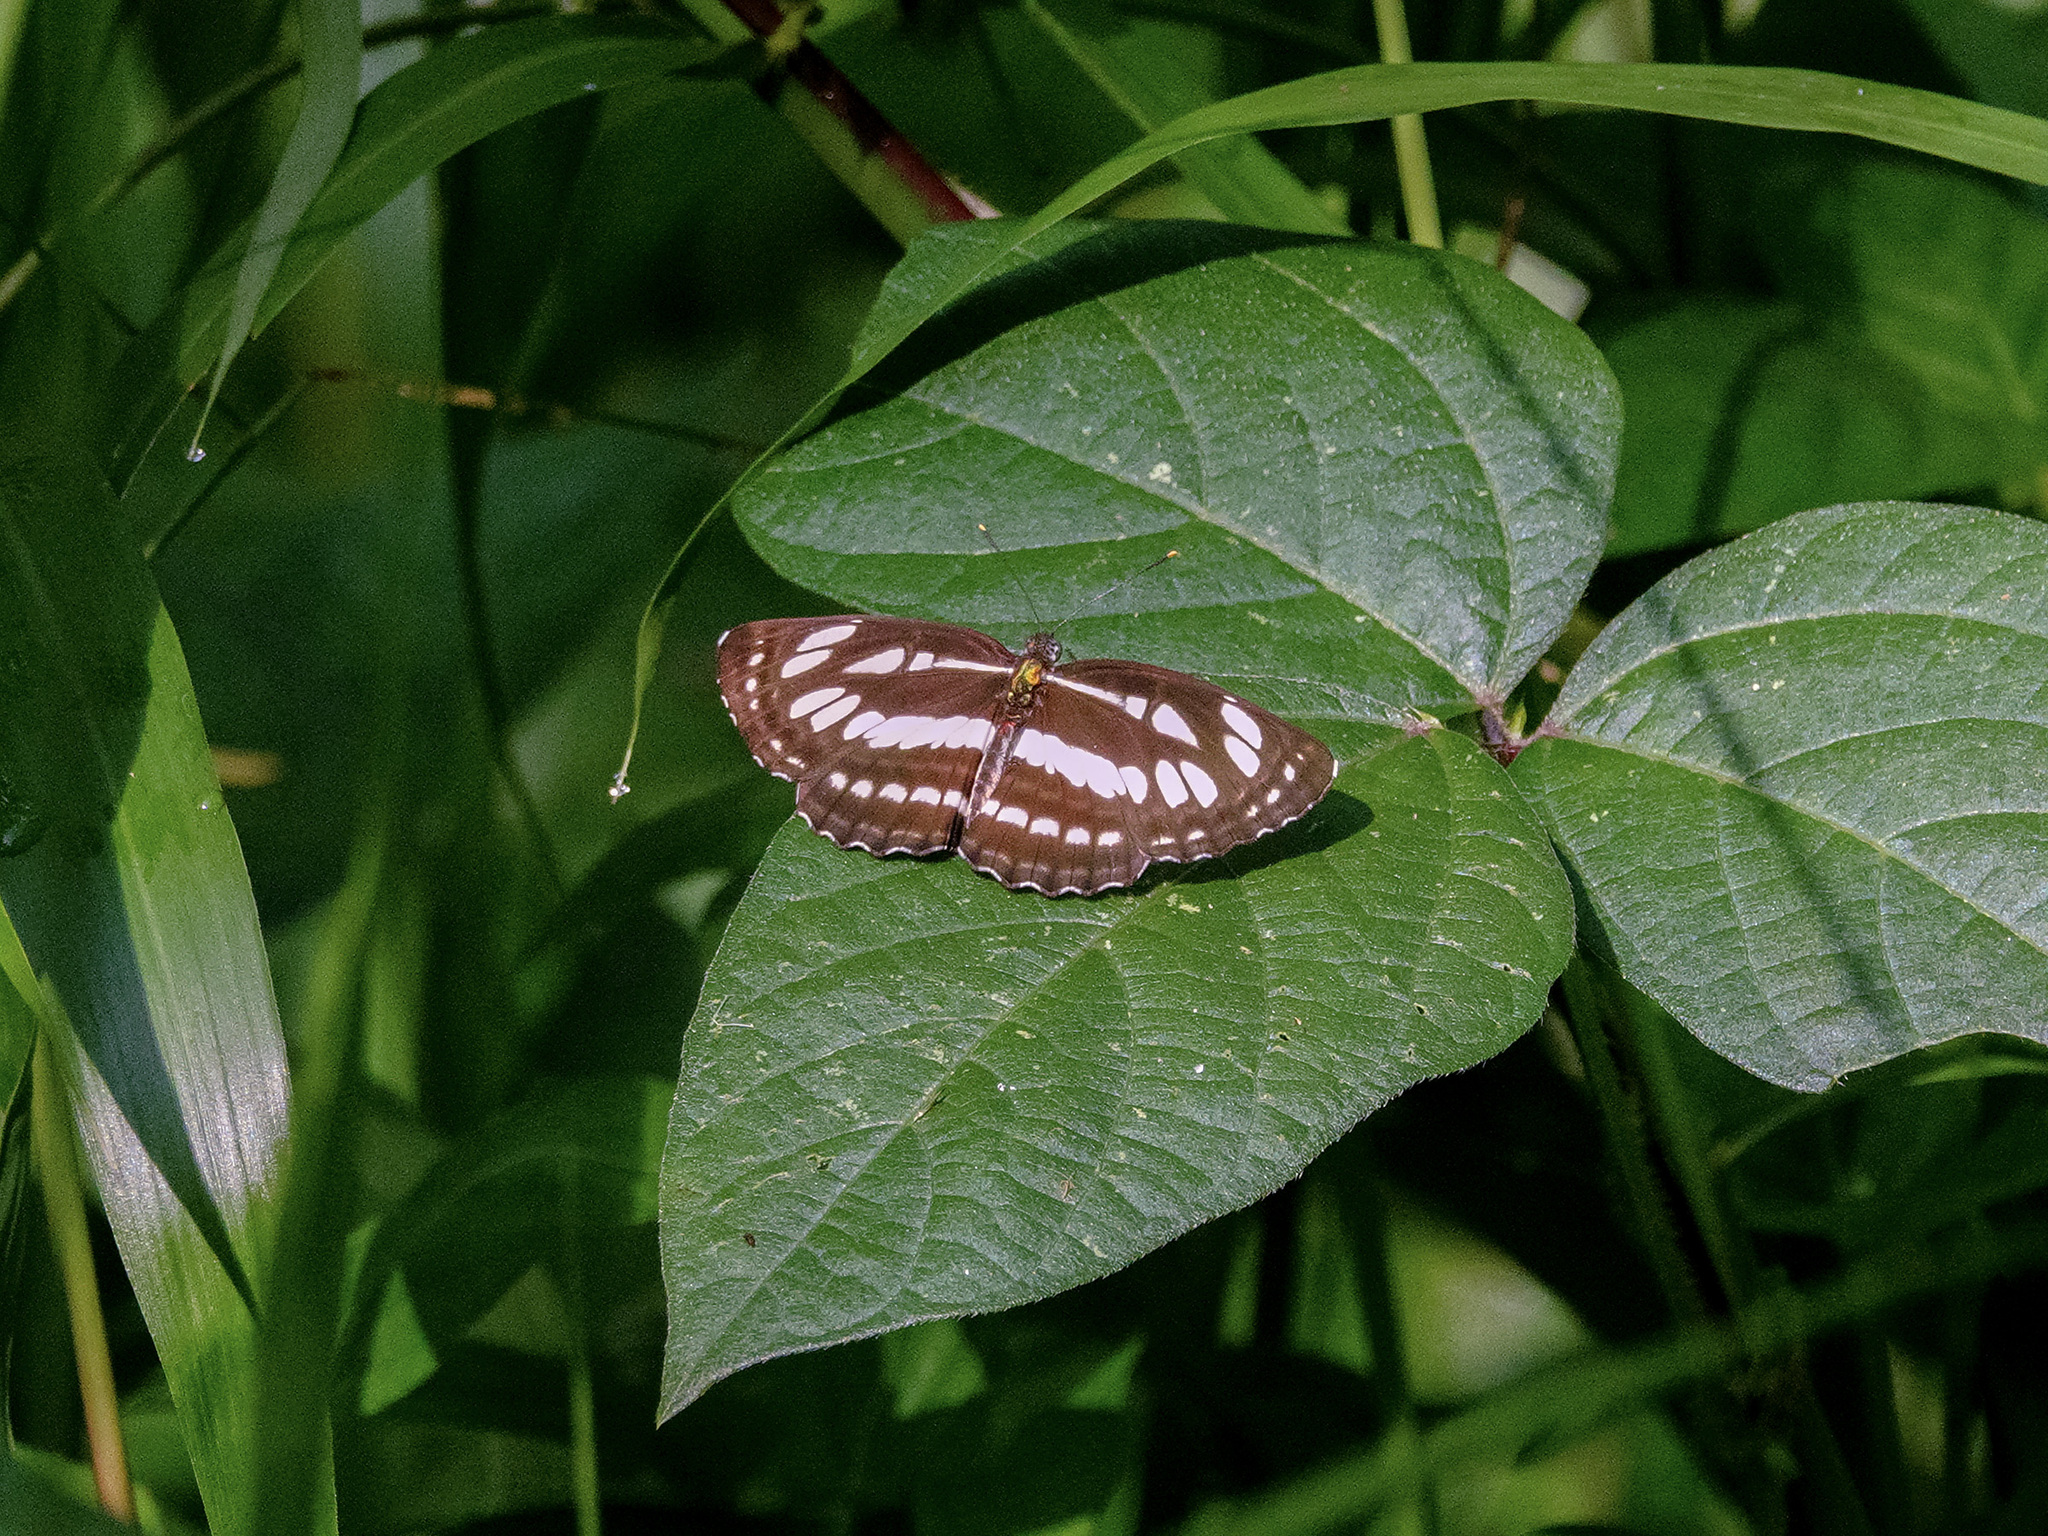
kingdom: Animalia
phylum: Arthropoda
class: Insecta
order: Lepidoptera
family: Nymphalidae
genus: Neptis
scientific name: Neptis hylas
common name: Common sailer
